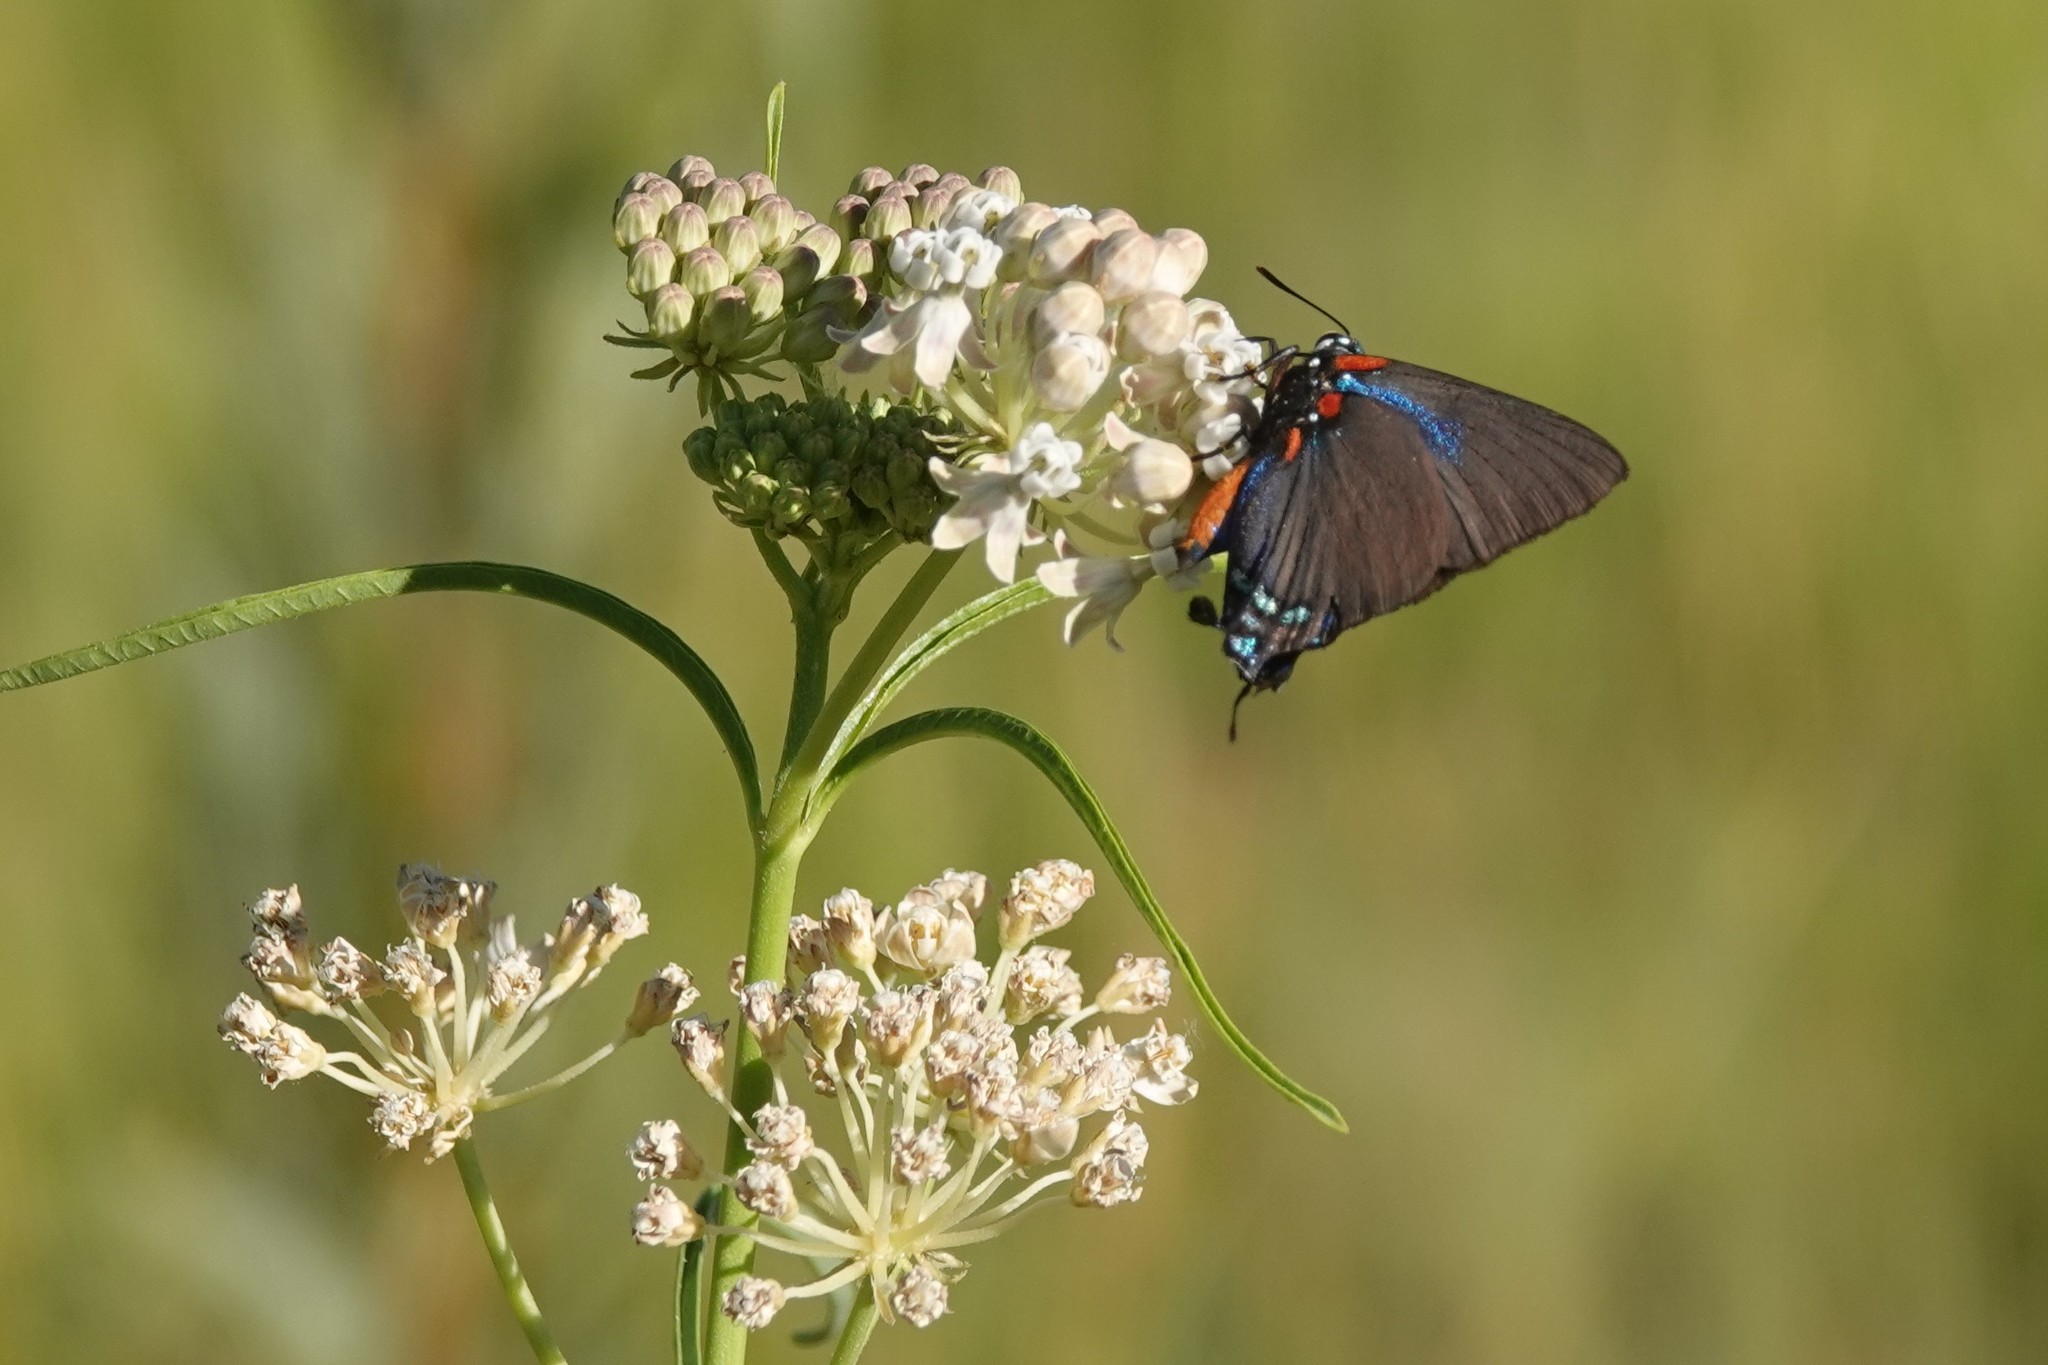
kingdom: Animalia
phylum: Arthropoda
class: Insecta
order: Lepidoptera
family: Lycaenidae
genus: Atlides
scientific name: Atlides halesus
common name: Great purple hairstreak
